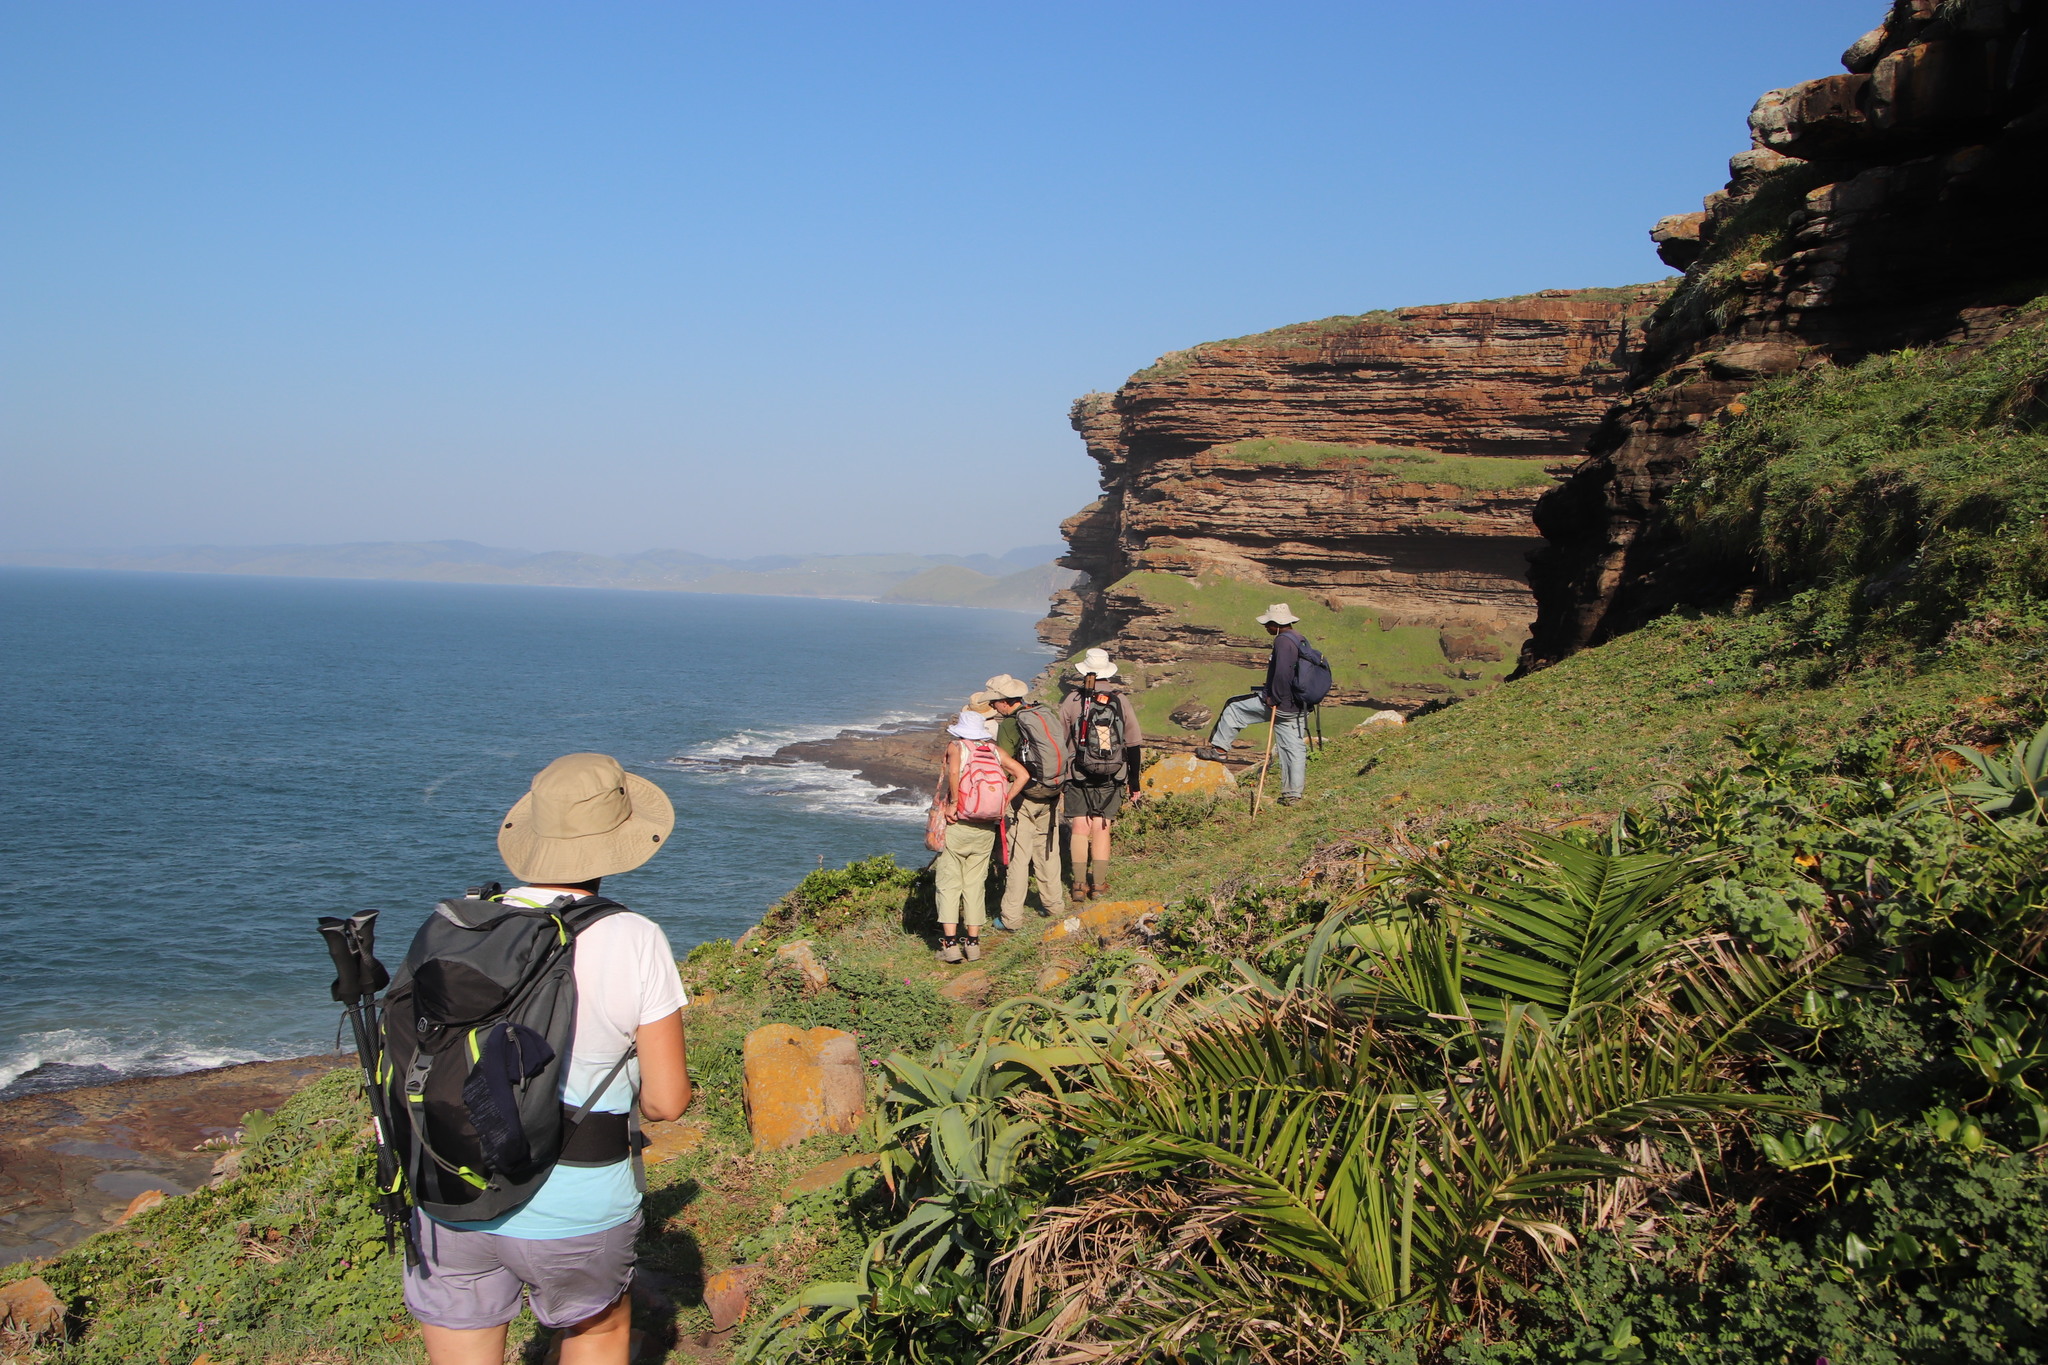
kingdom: Plantae
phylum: Tracheophyta
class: Liliopsida
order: Arecales
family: Arecaceae
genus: Phoenix
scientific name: Phoenix reclinata
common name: Senegal date palm
